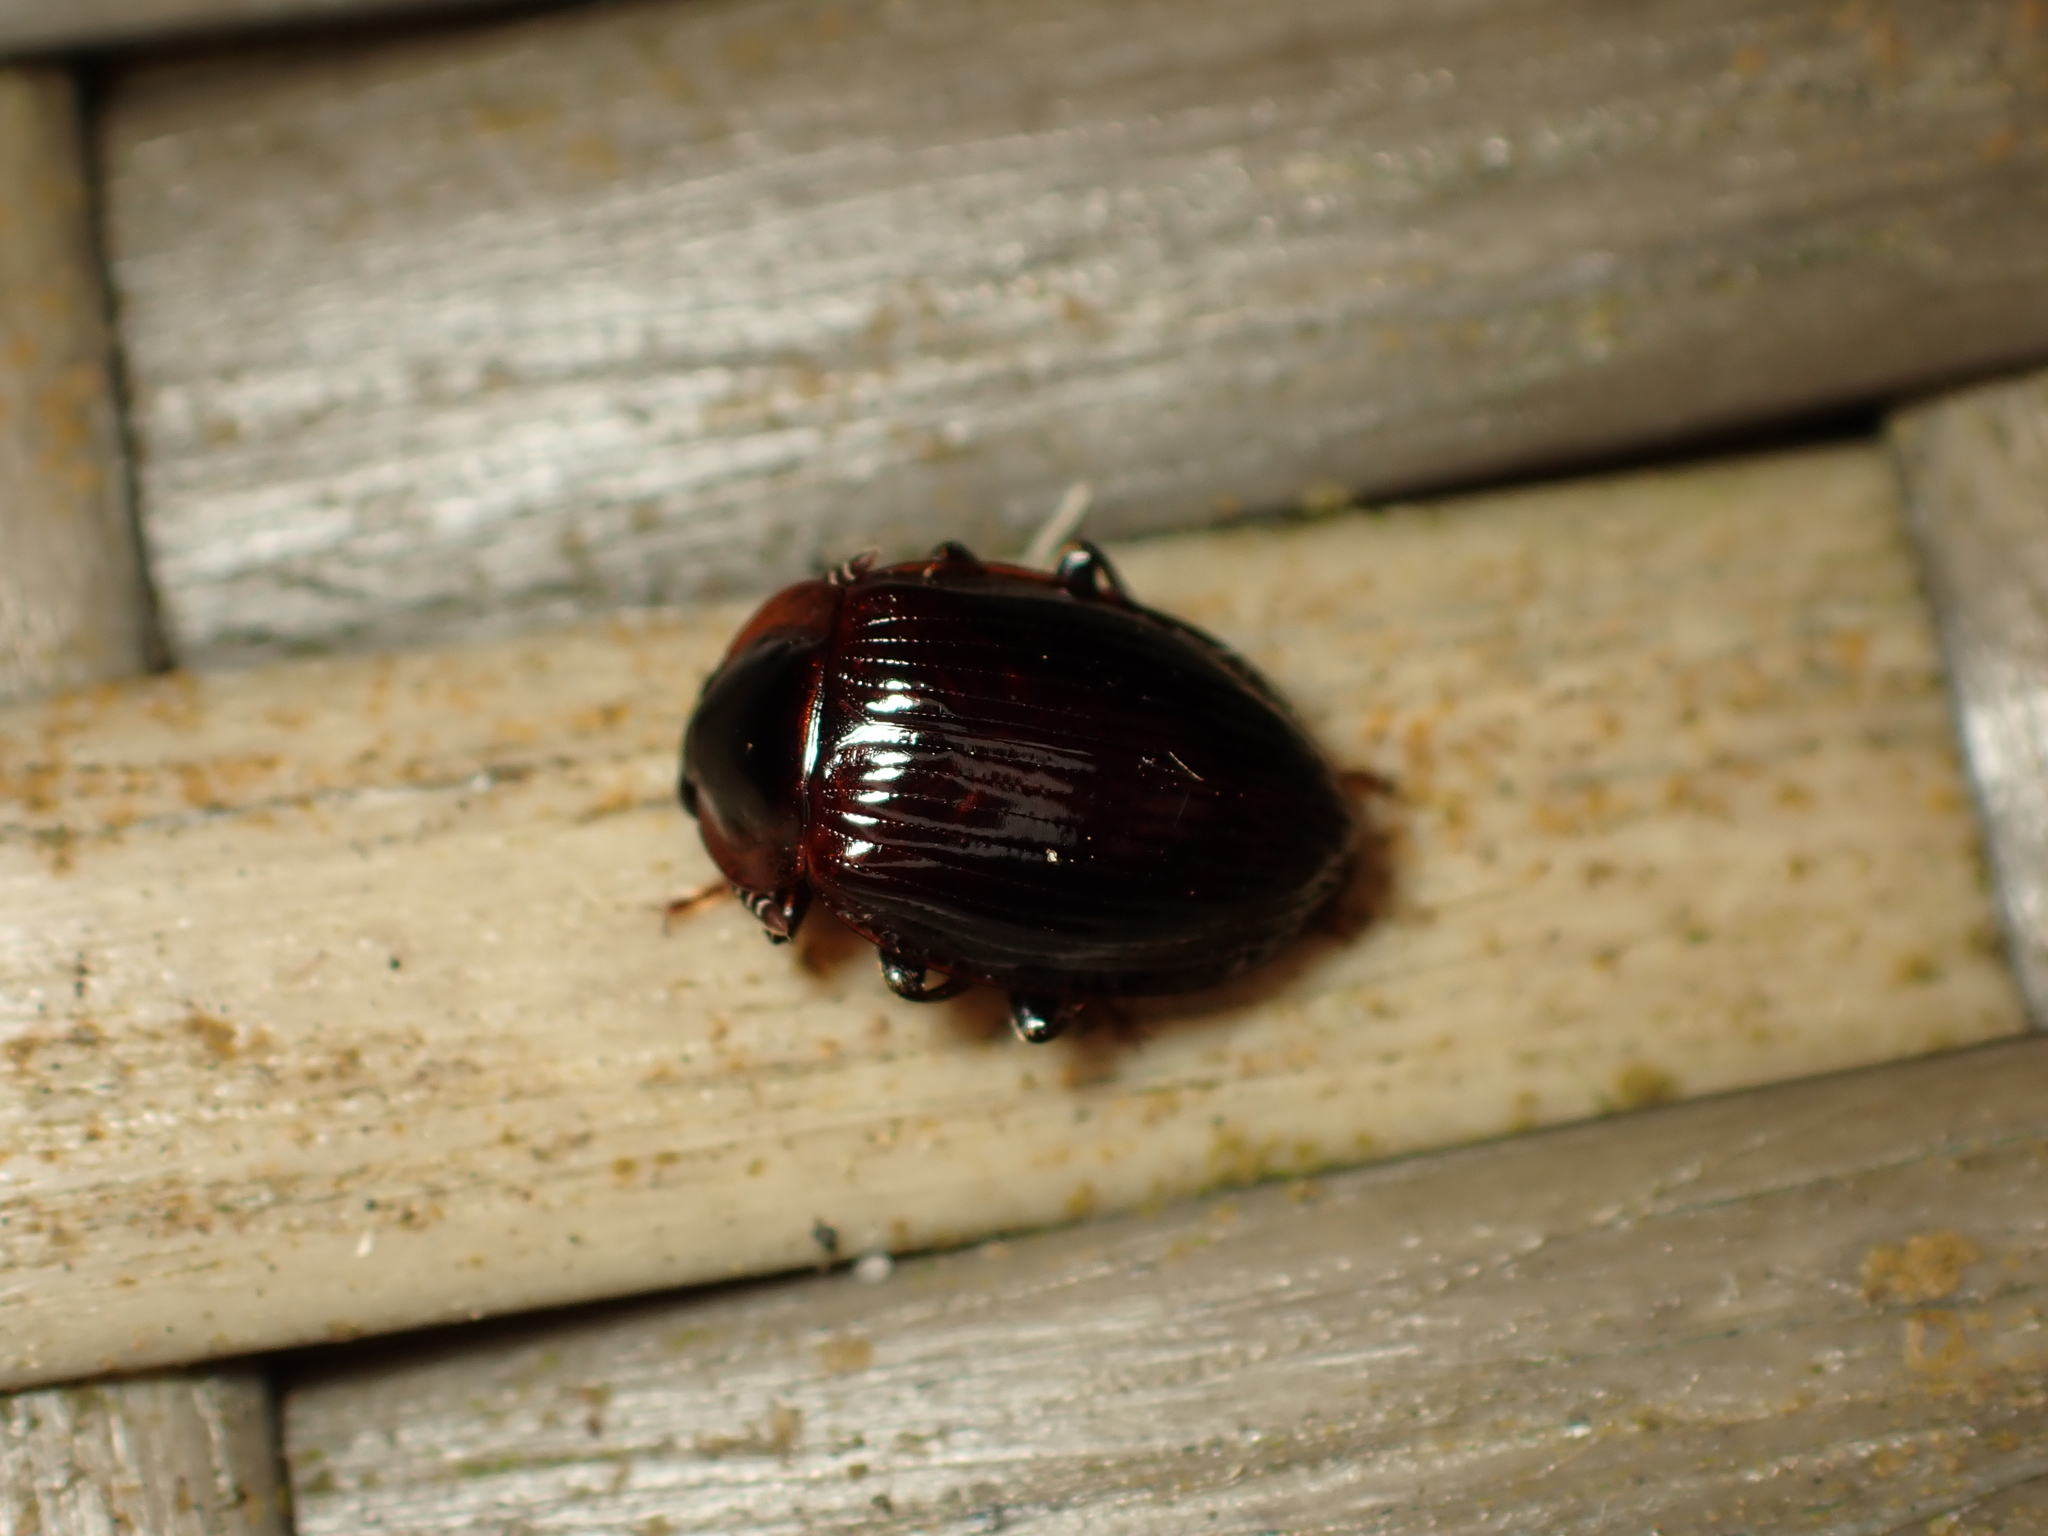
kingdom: Animalia
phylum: Arthropoda
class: Insecta
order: Coleoptera
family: Agyrtidae
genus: Zeanecrophilus
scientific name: Zeanecrophilus prolongatus
